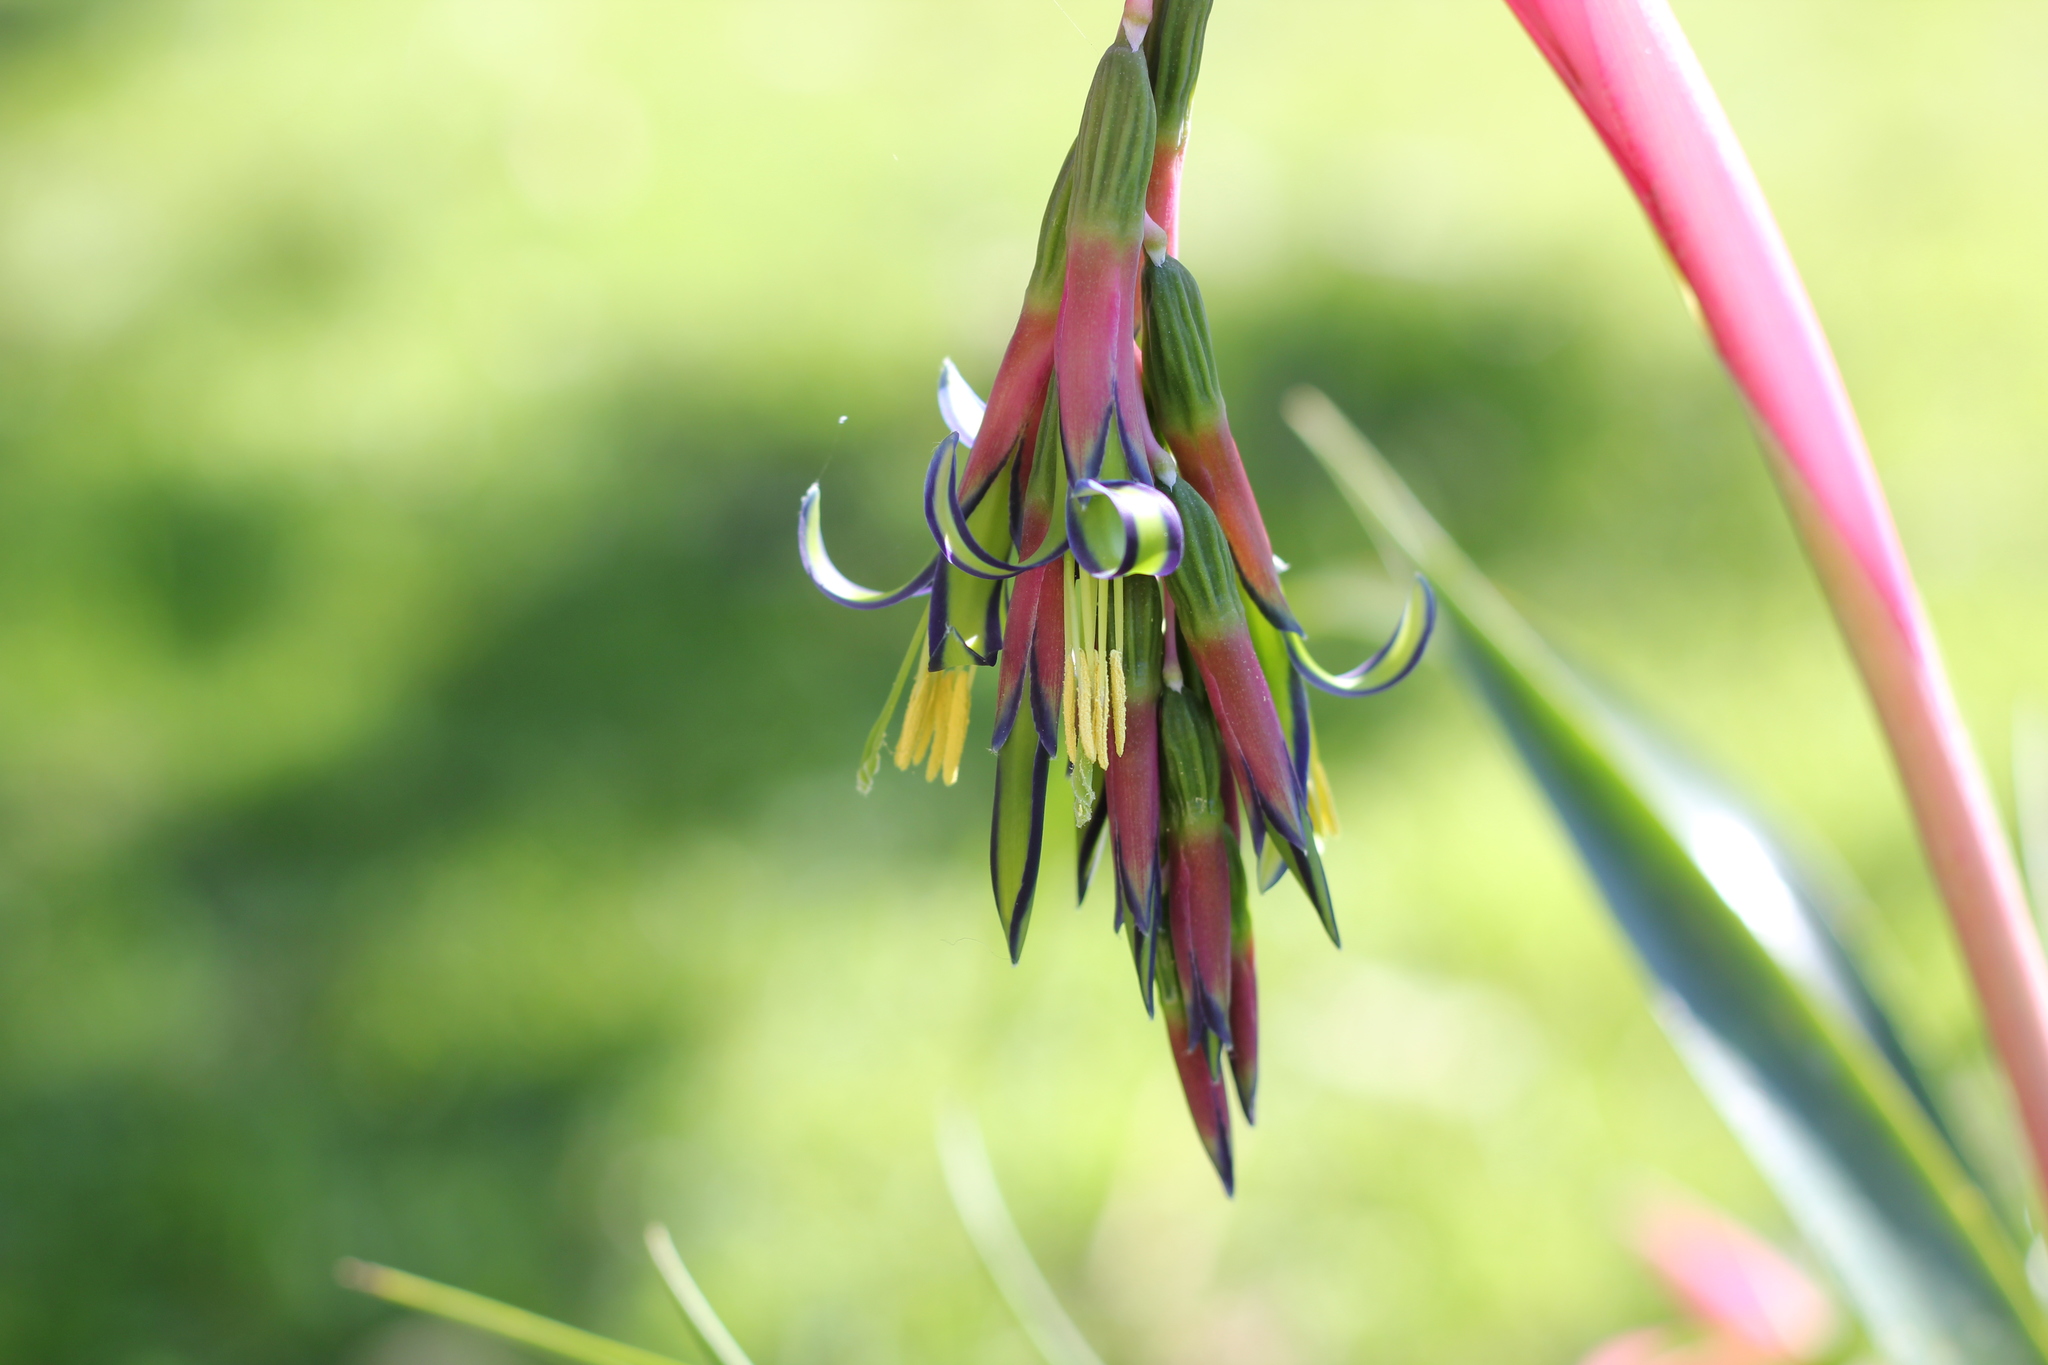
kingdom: Plantae
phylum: Tracheophyta
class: Liliopsida
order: Poales
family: Bromeliaceae
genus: Billbergia
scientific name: Billbergia nutans
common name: Friendship-plant
